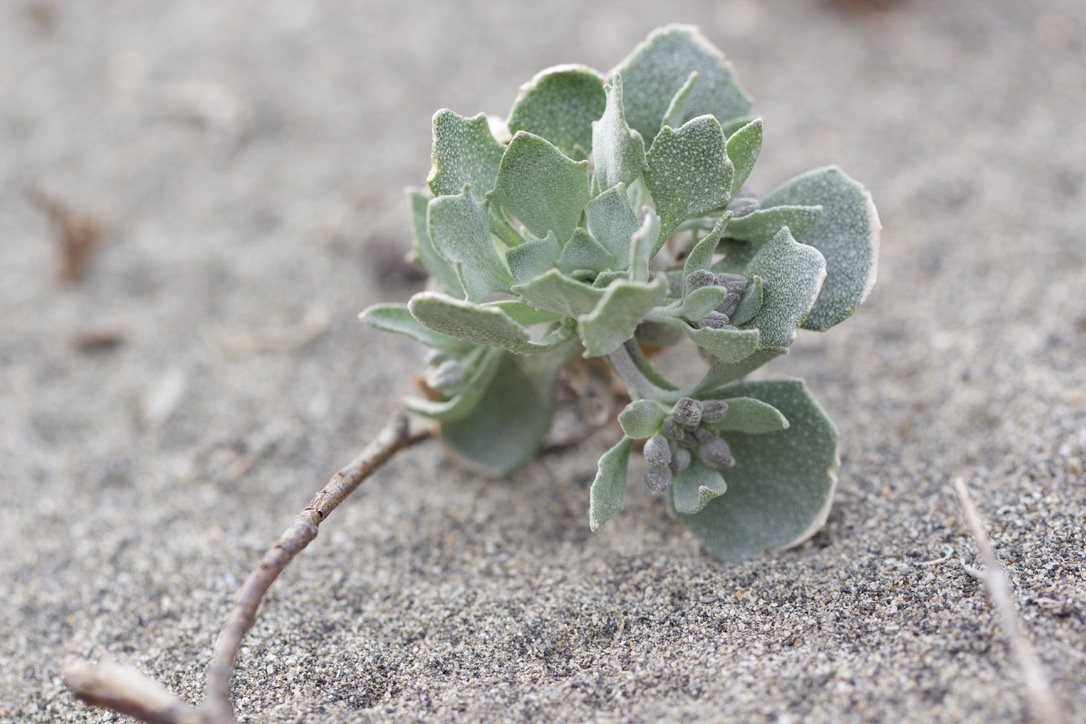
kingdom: Plantae
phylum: Tracheophyta
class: Magnoliopsida
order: Brassicales
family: Brassicaceae
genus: Physaria
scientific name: Physaria didymocarpa
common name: Common twinpod
